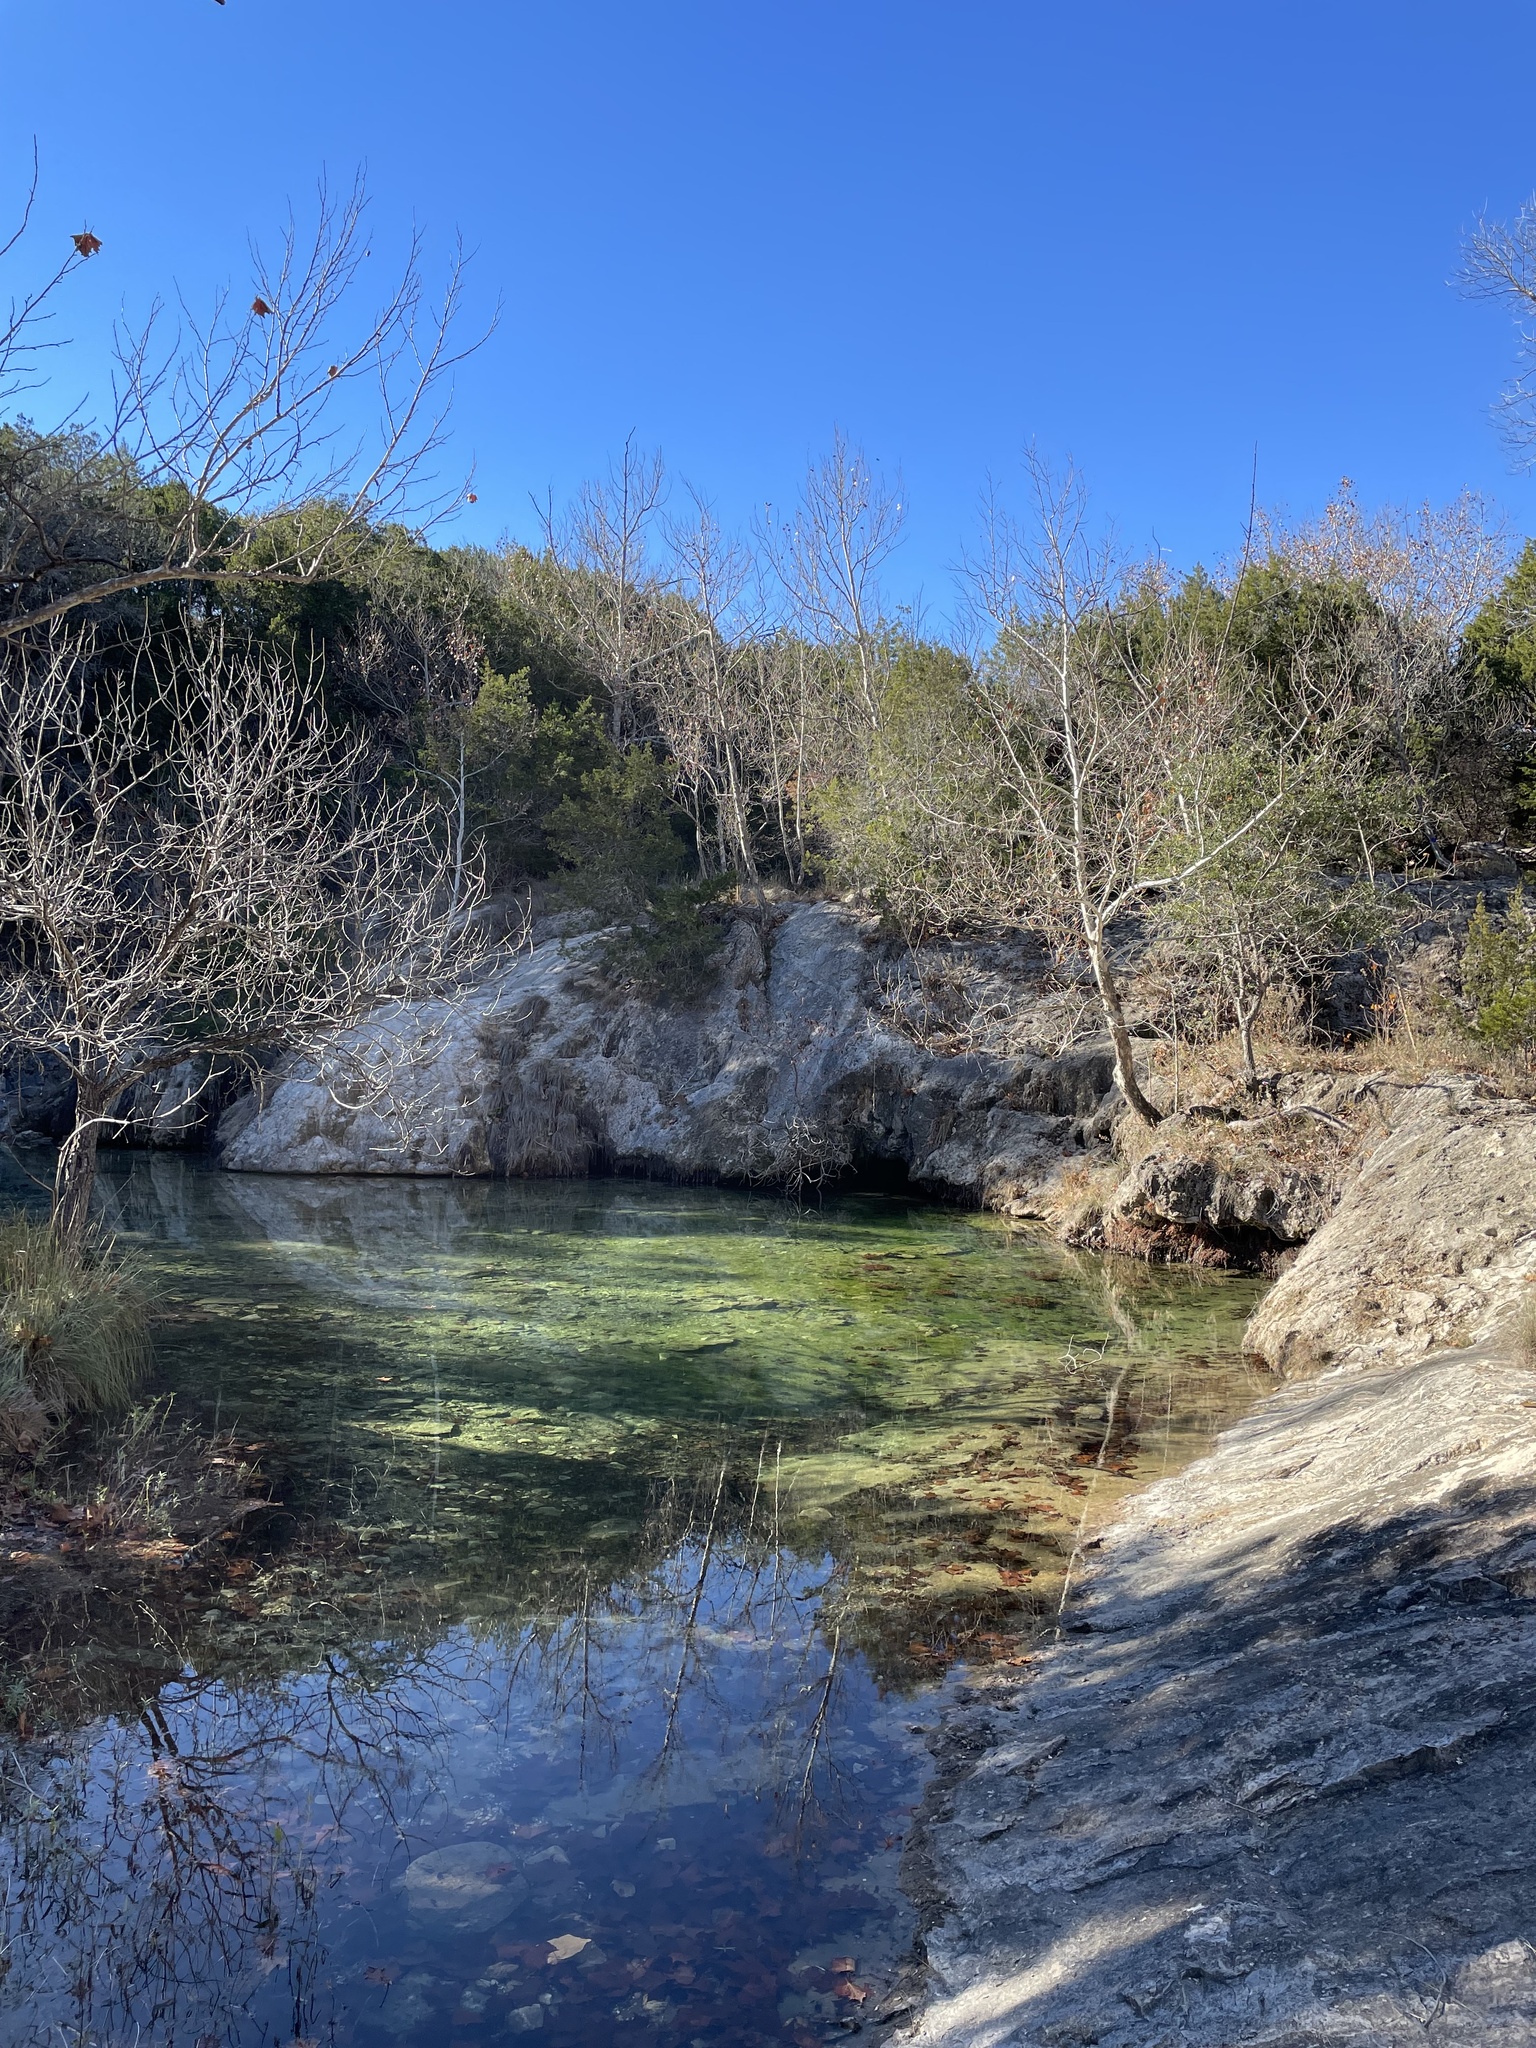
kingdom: Plantae
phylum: Tracheophyta
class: Magnoliopsida
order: Proteales
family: Platanaceae
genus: Platanus
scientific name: Platanus occidentalis
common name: American sycamore
